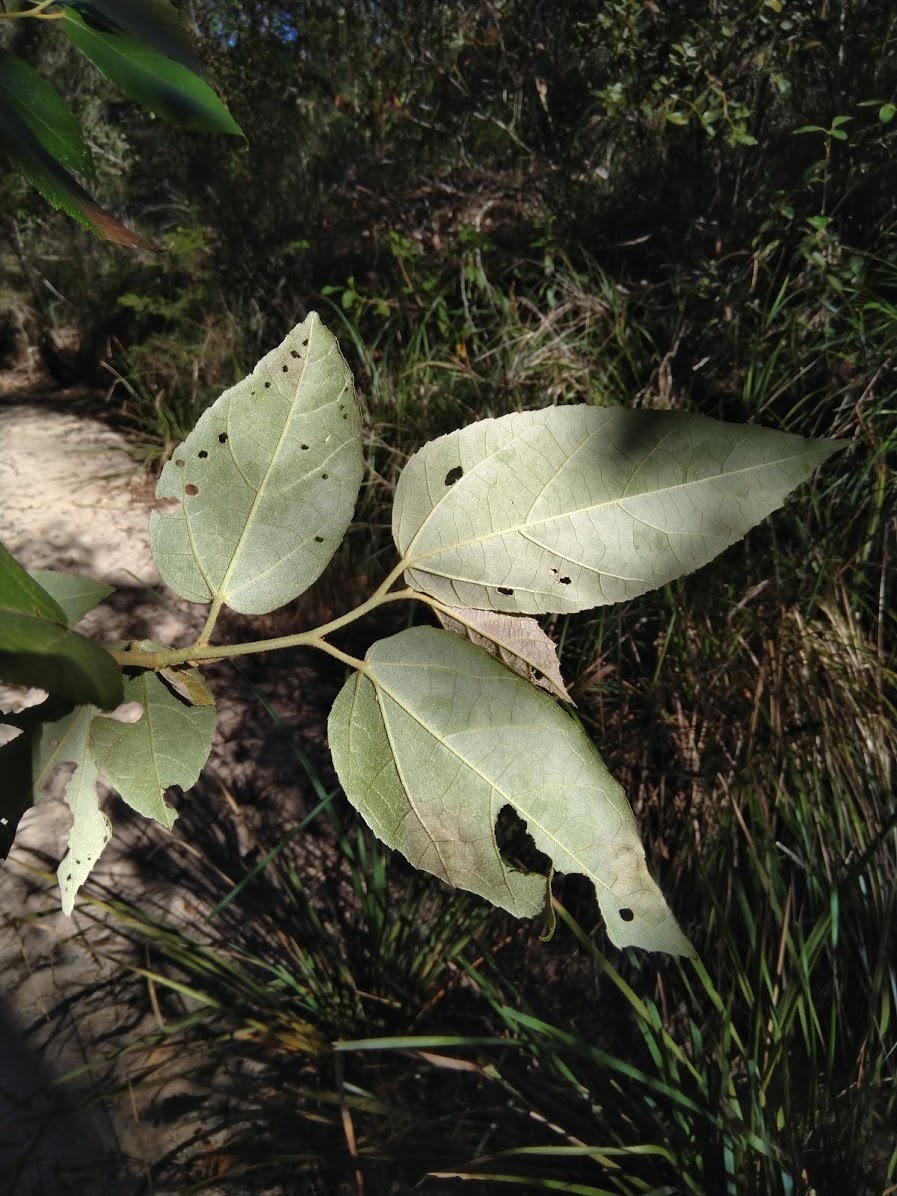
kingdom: Plantae
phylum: Tracheophyta
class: Magnoliopsida
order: Malvales
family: Malvaceae
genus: Commersonia
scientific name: Commersonia bartramia
